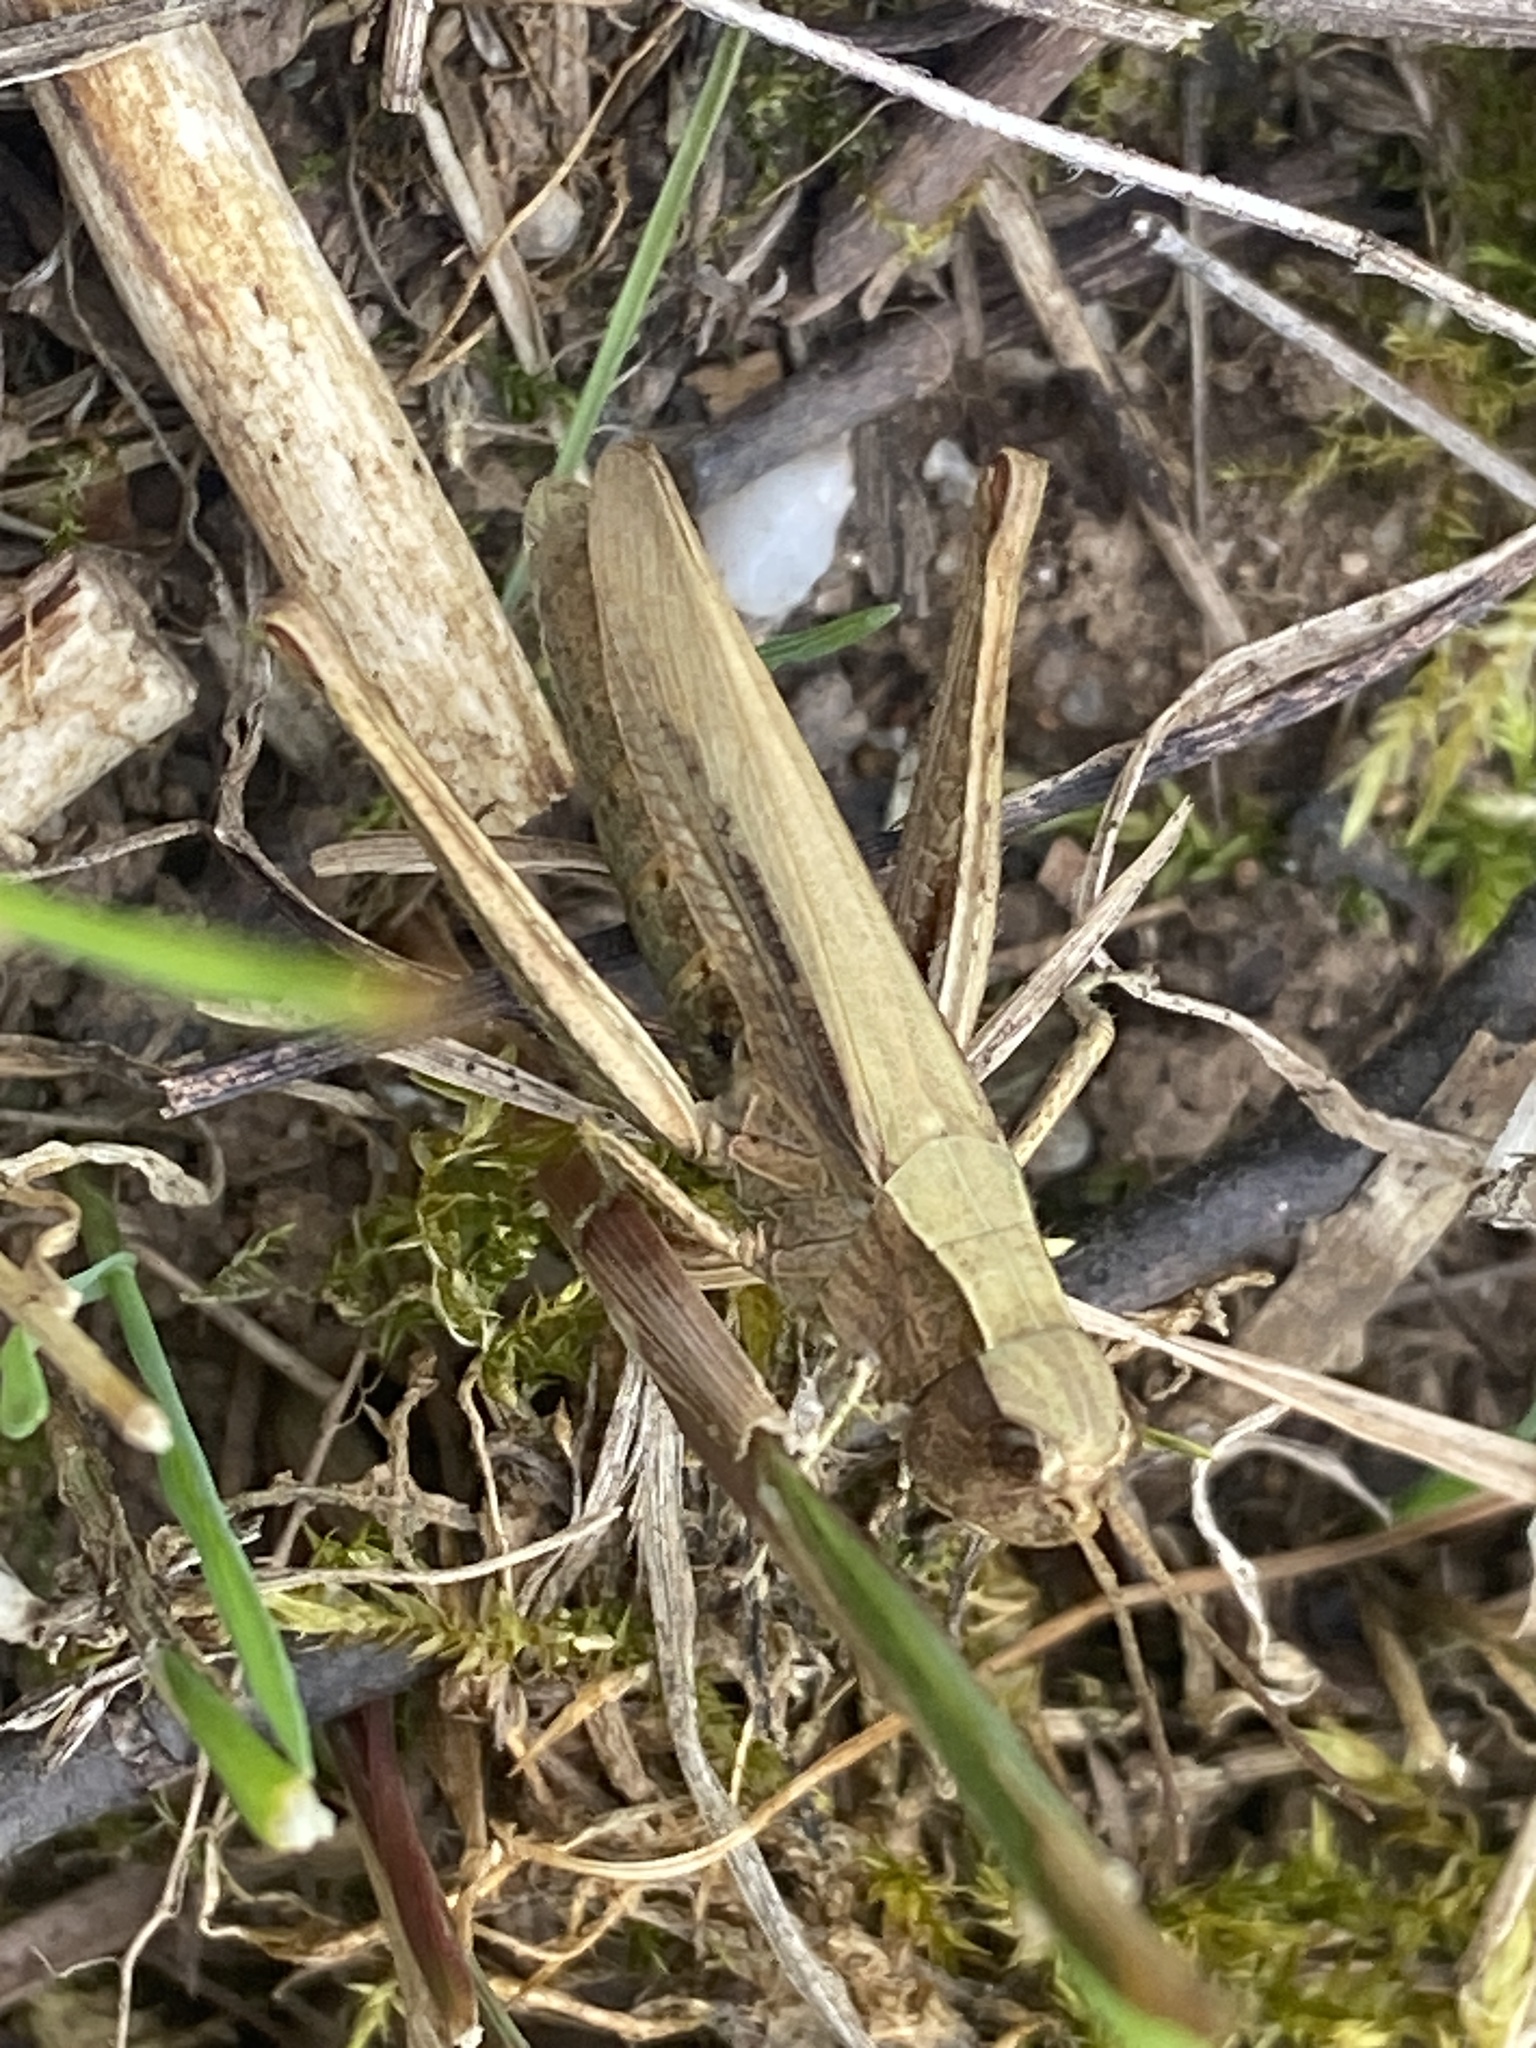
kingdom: Animalia
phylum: Arthropoda
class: Insecta
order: Orthoptera
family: Acrididae
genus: Chorthippus
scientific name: Chorthippus dorsatus
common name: Steppe grasshopper
